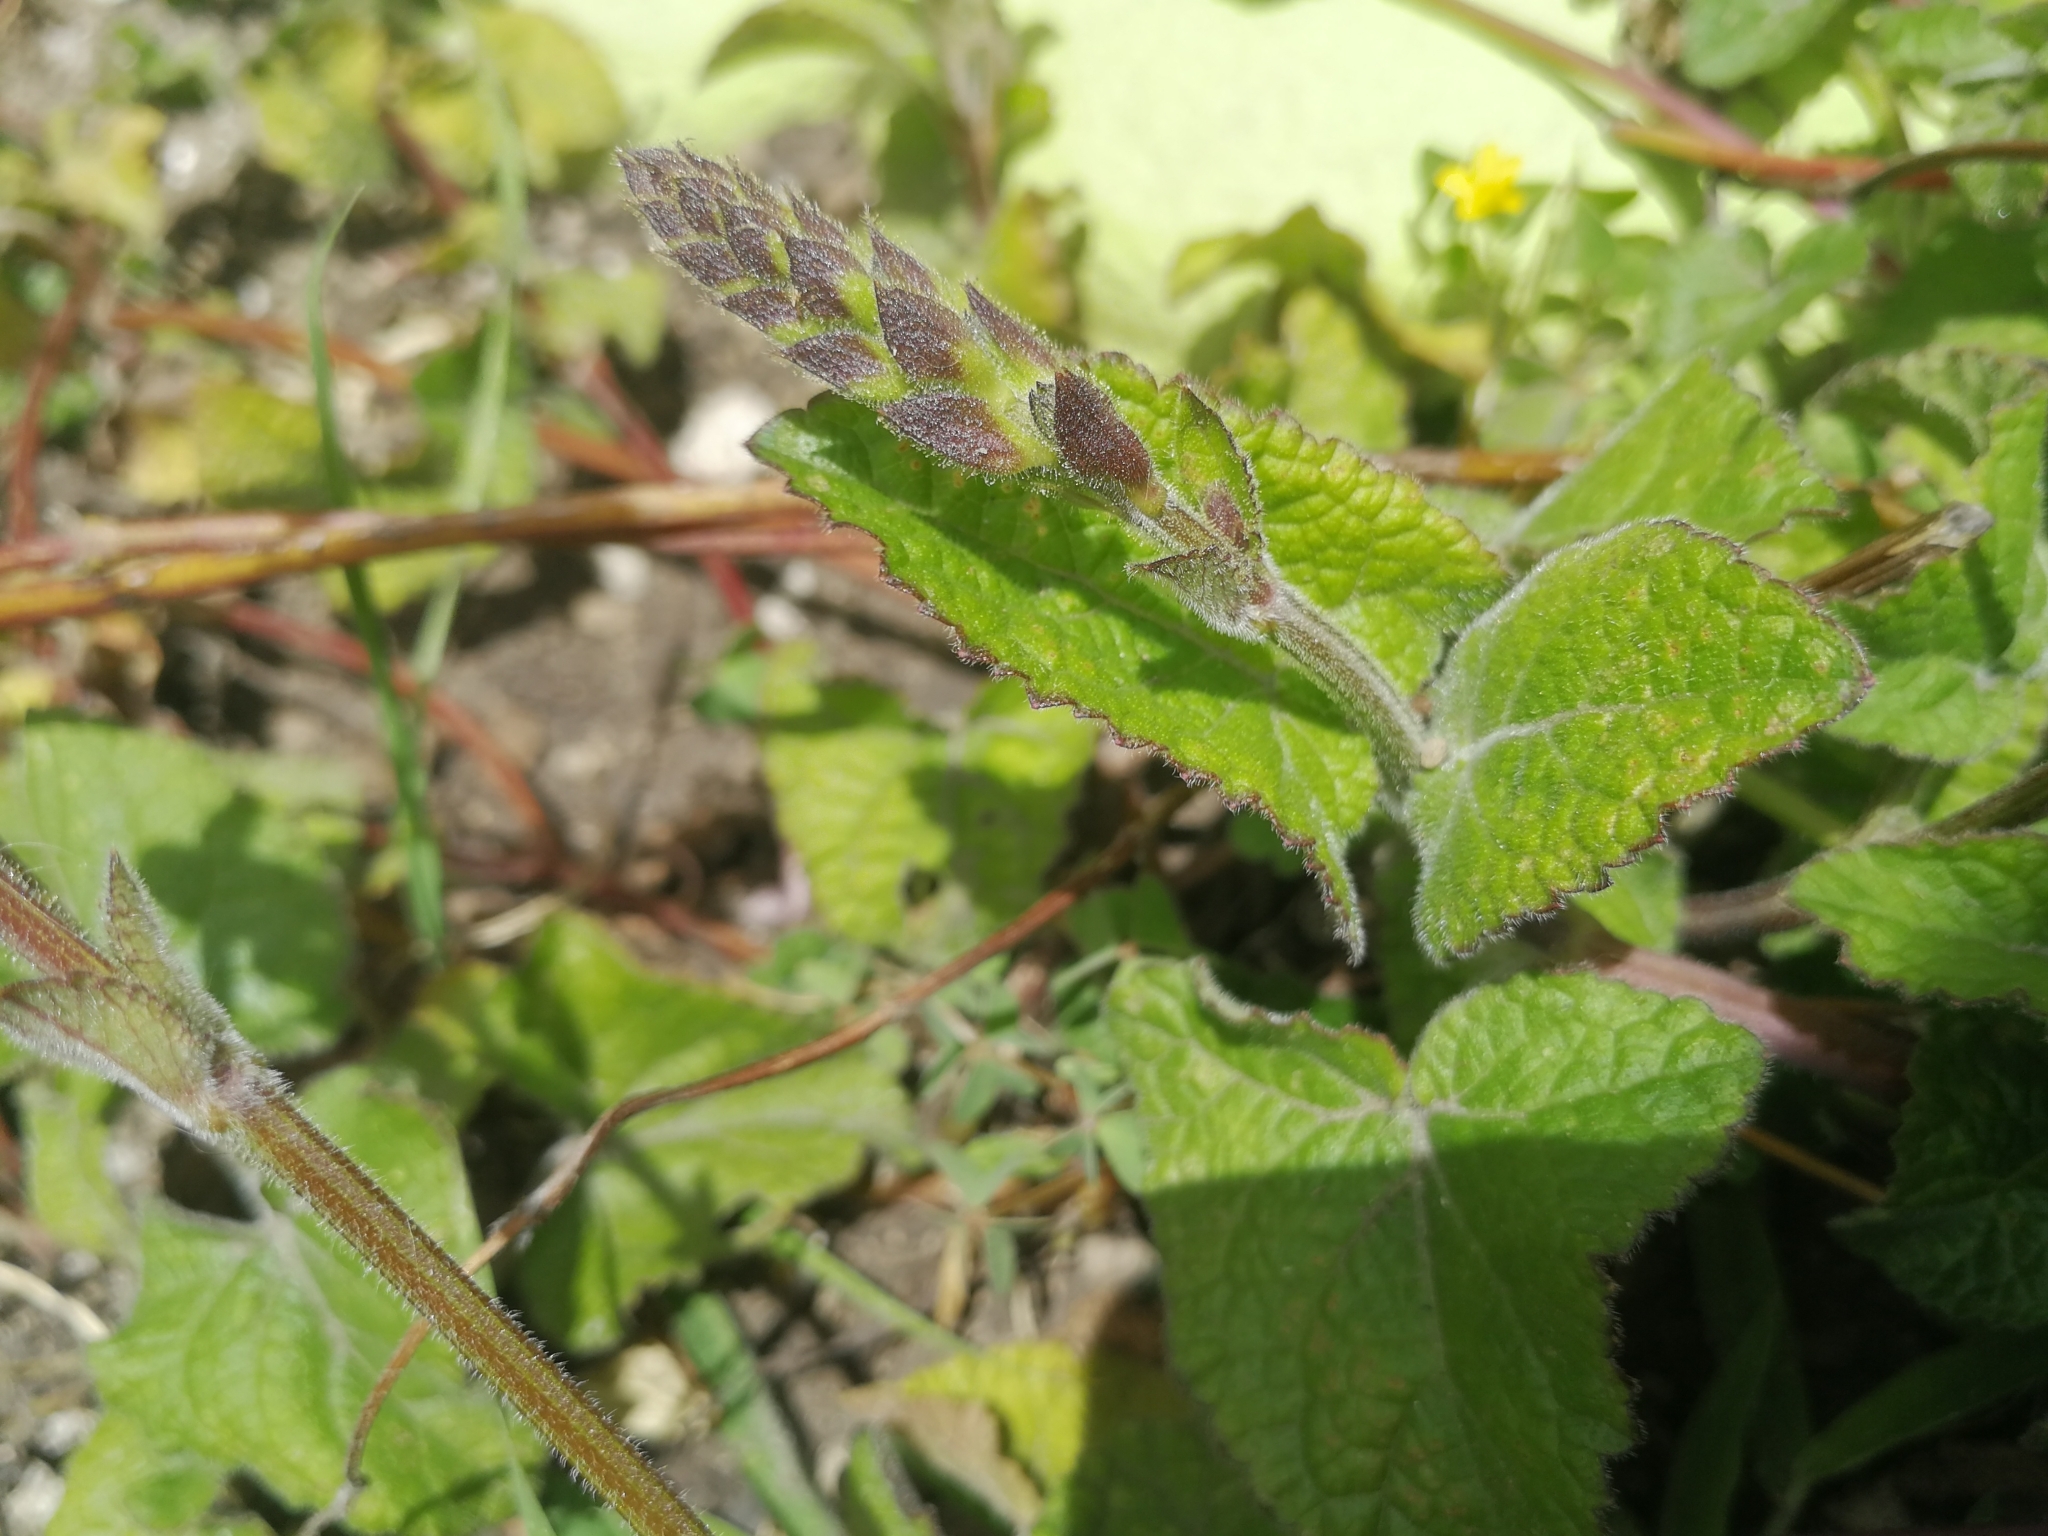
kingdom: Plantae
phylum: Tracheophyta
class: Magnoliopsida
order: Lamiales
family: Lamiaceae
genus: Salvia
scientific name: Salvia scutellarioides
